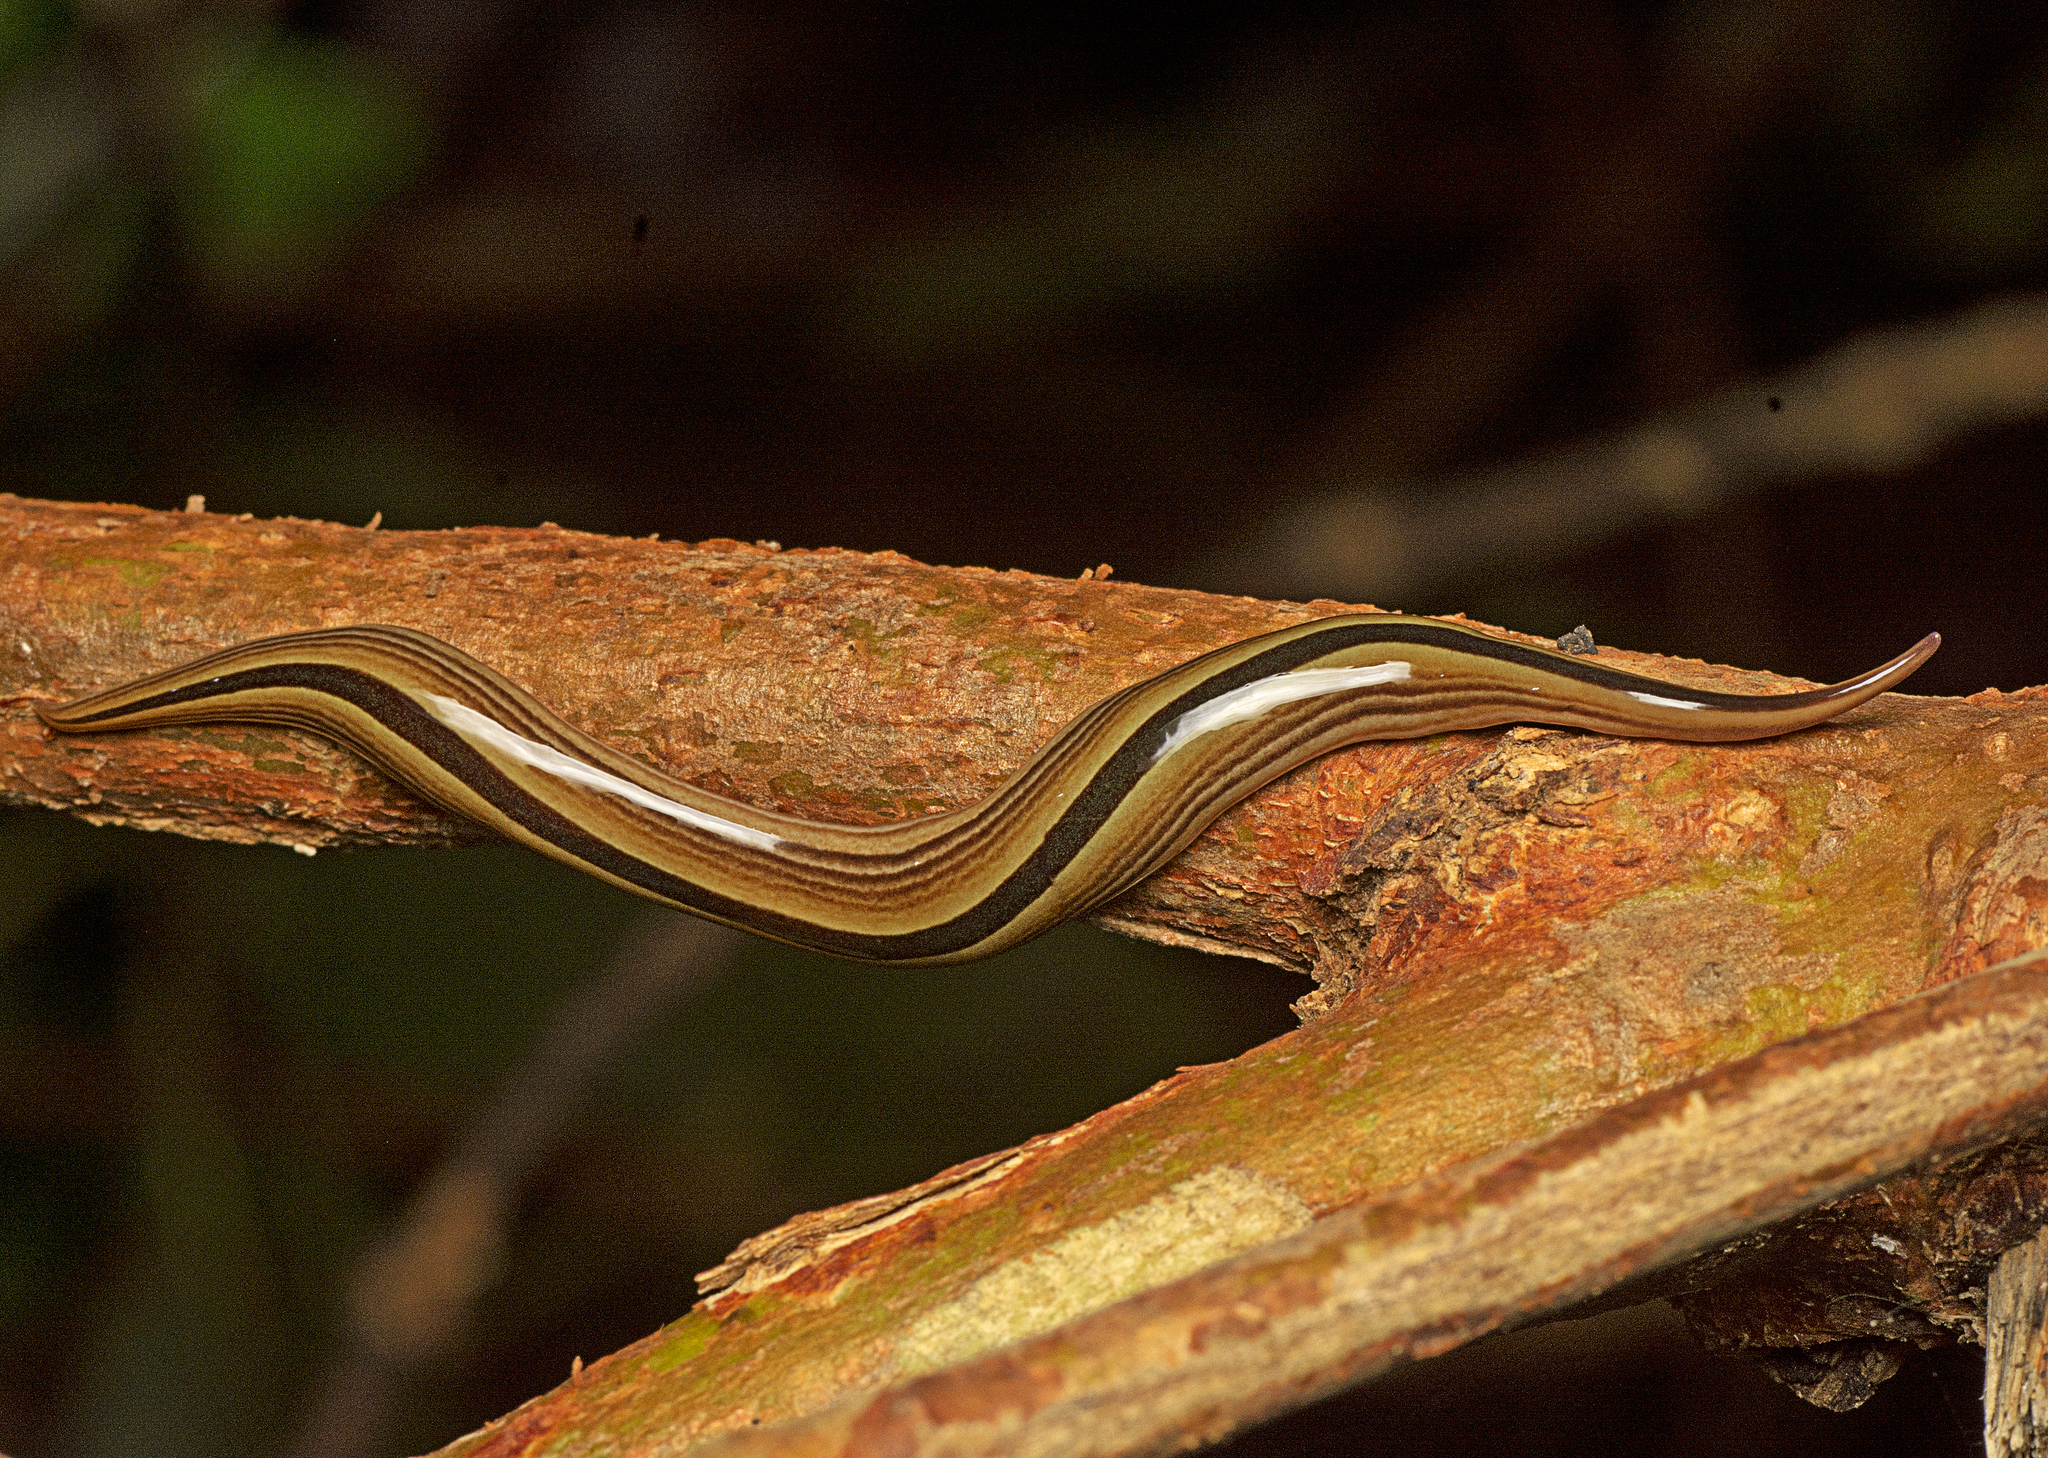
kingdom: Animalia
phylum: Platyhelminthes
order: Tricladida
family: Geoplanidae
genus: Australopacifica
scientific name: Australopacifica regina
